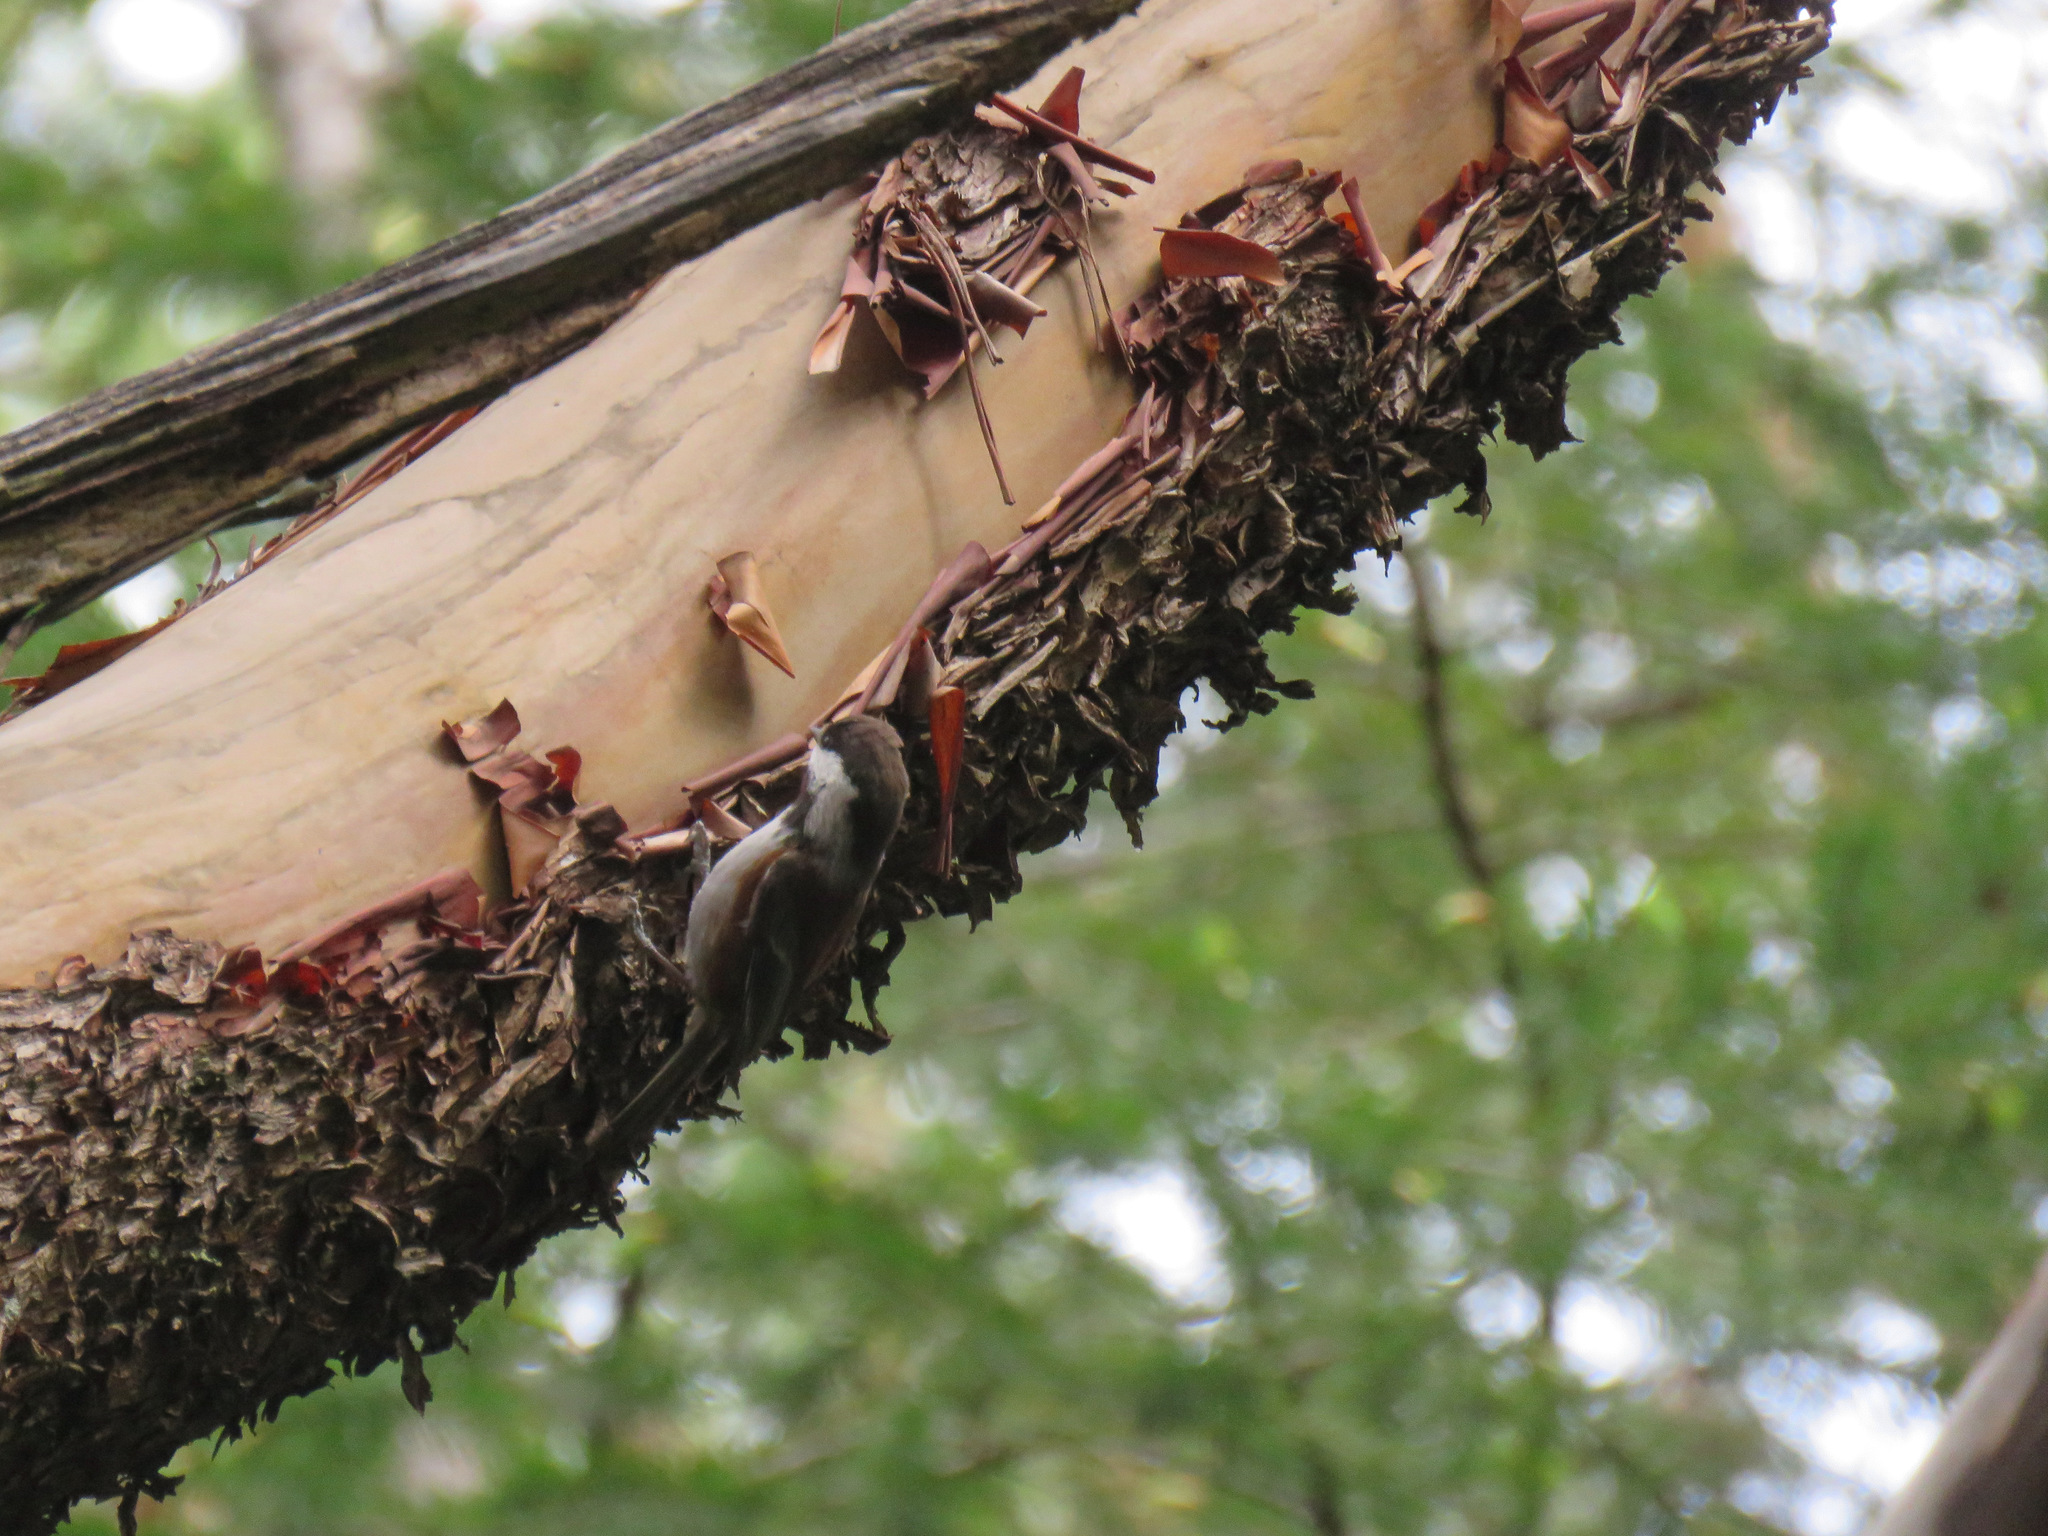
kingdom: Animalia
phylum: Chordata
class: Aves
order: Passeriformes
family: Paridae
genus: Poecile
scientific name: Poecile rufescens
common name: Chestnut-backed chickadee
